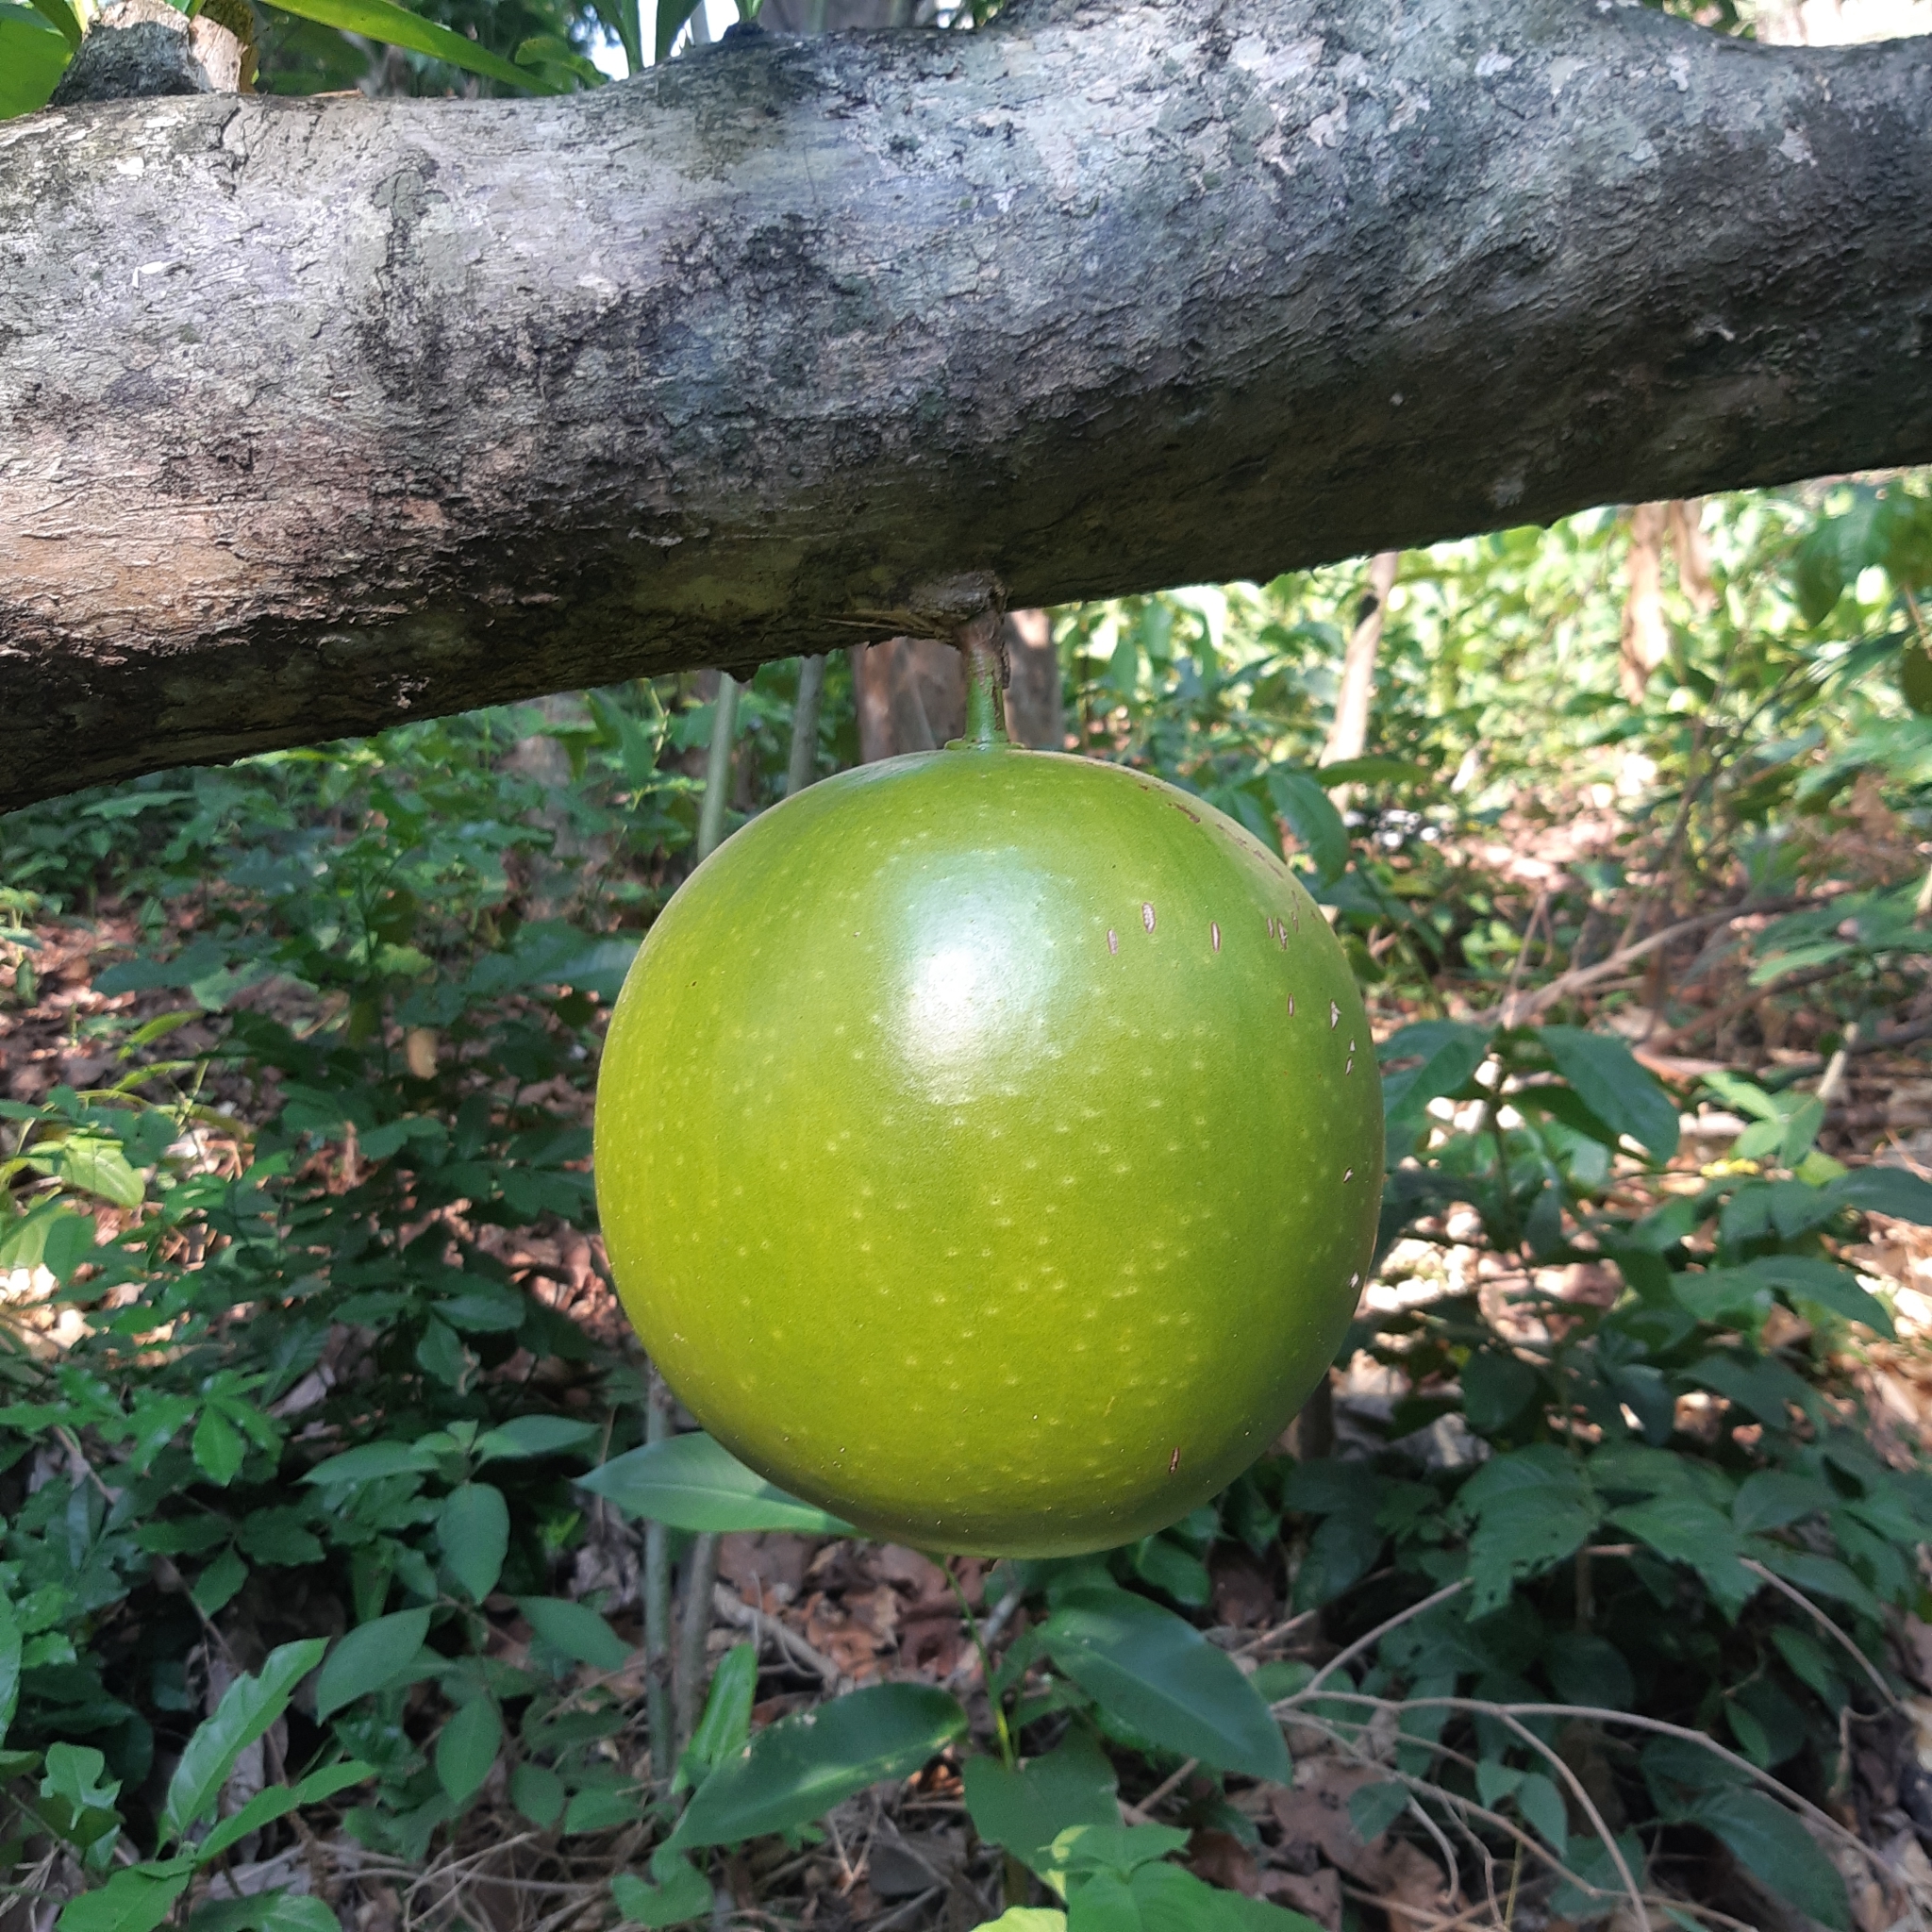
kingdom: Plantae
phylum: Tracheophyta
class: Magnoliopsida
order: Lamiales
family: Bignoniaceae
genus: Crescentia
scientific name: Crescentia cujete
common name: Calabash
